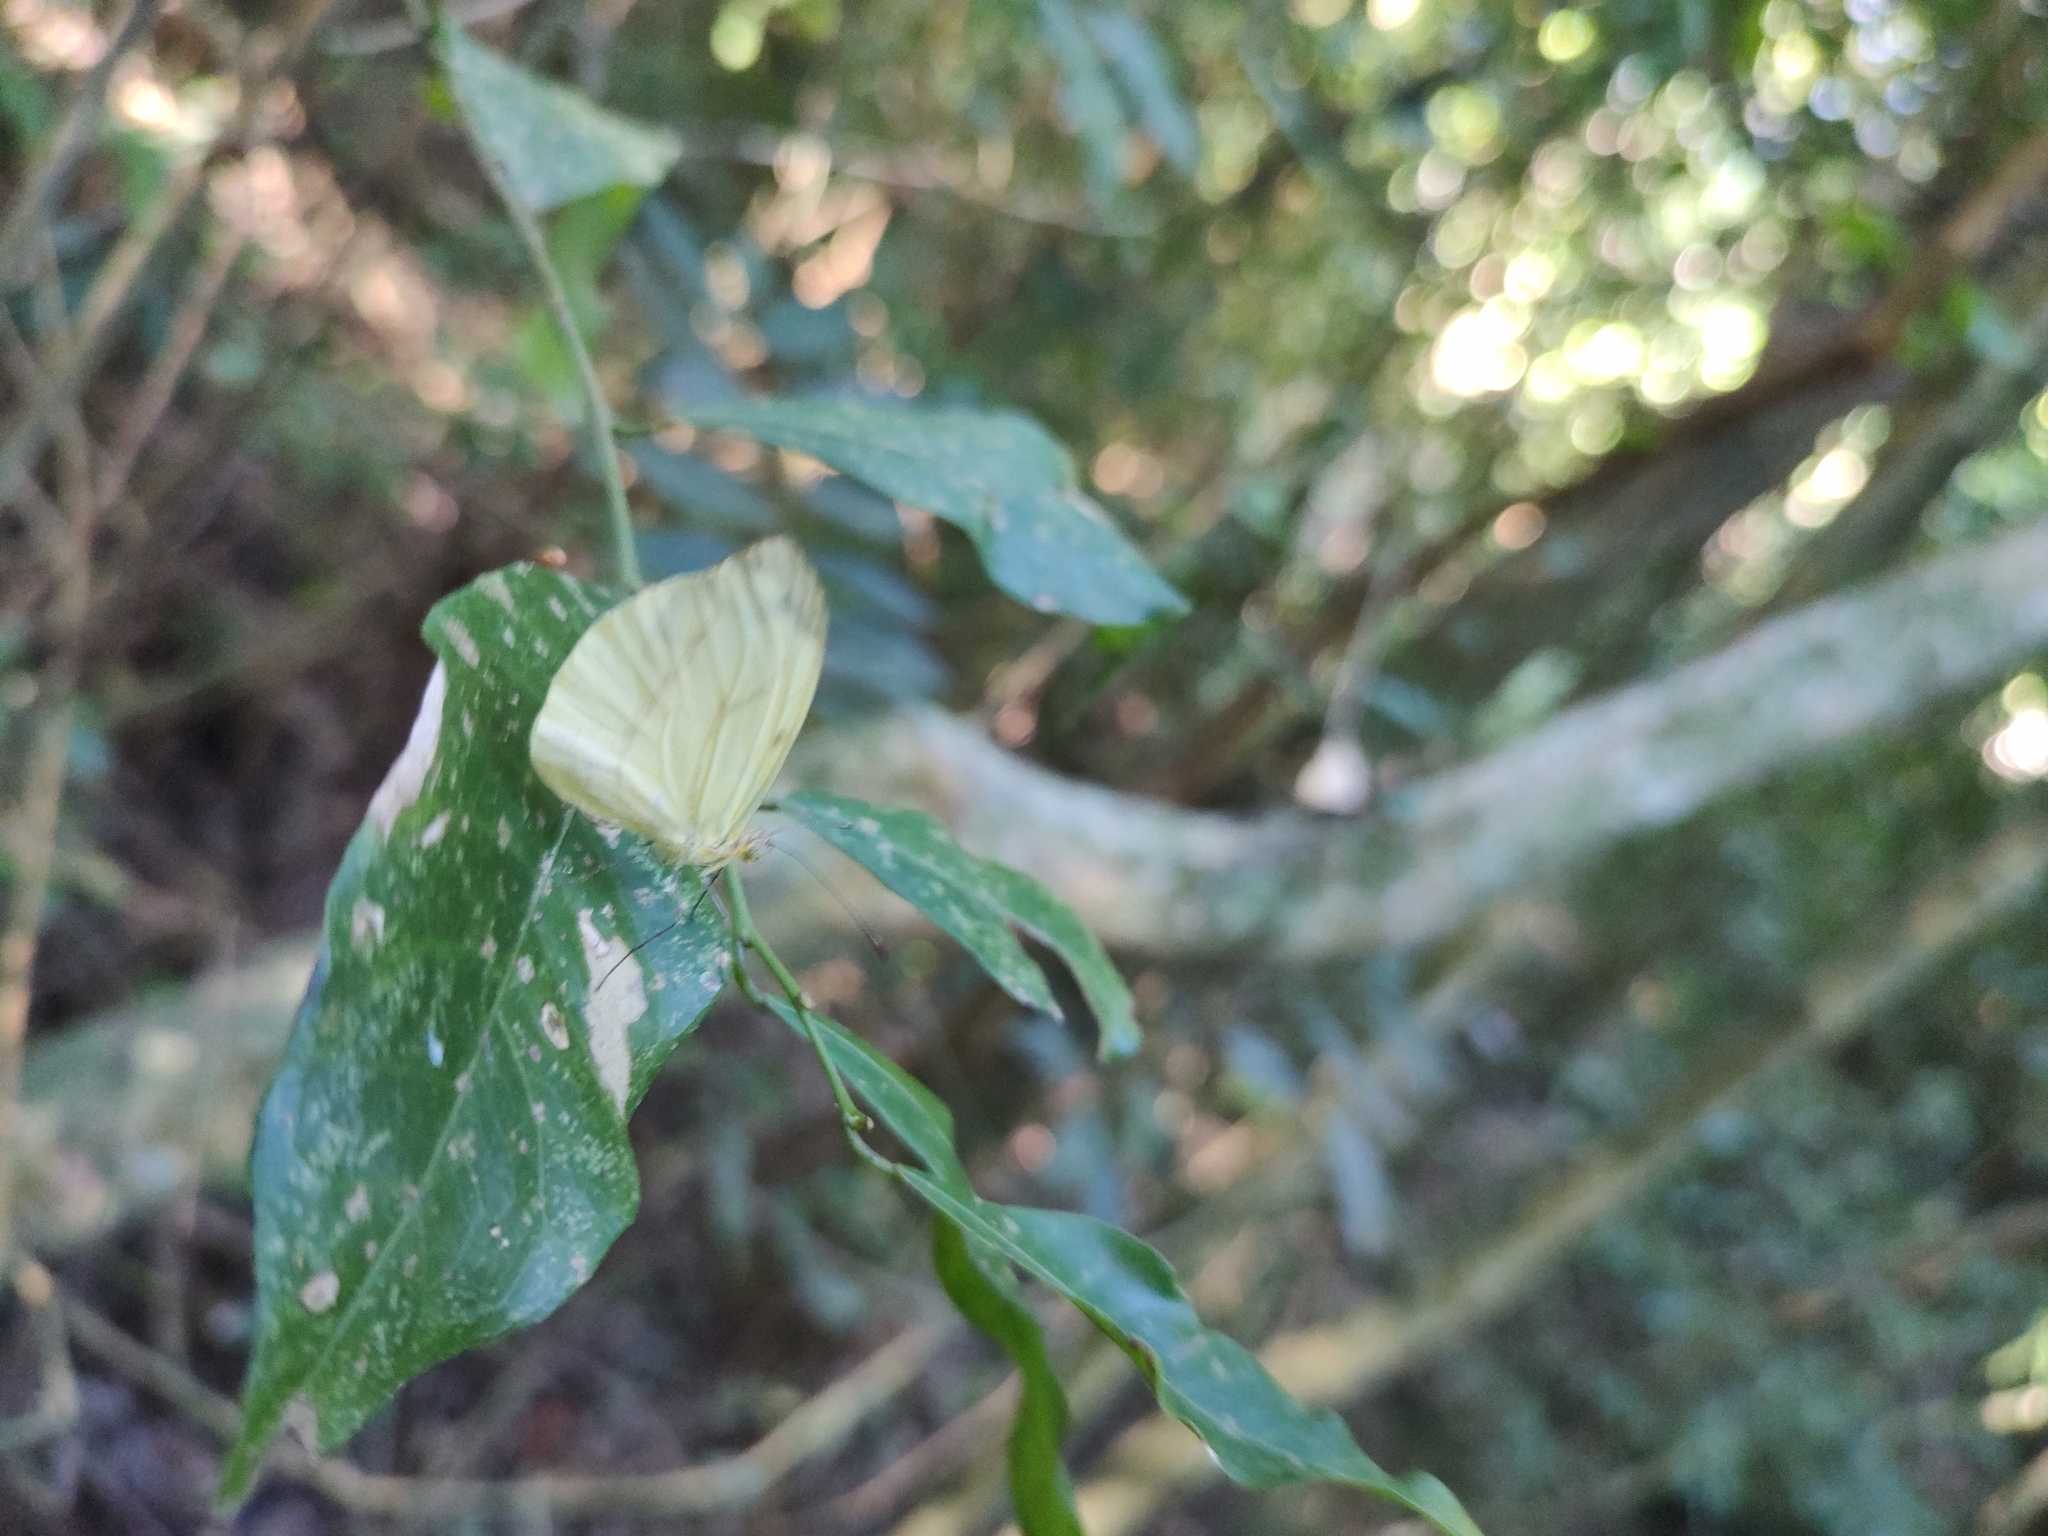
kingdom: Animalia
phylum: Arthropoda
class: Insecta
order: Lepidoptera
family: Pieridae
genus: Enantia
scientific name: Enantia lina
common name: White mimic-white
